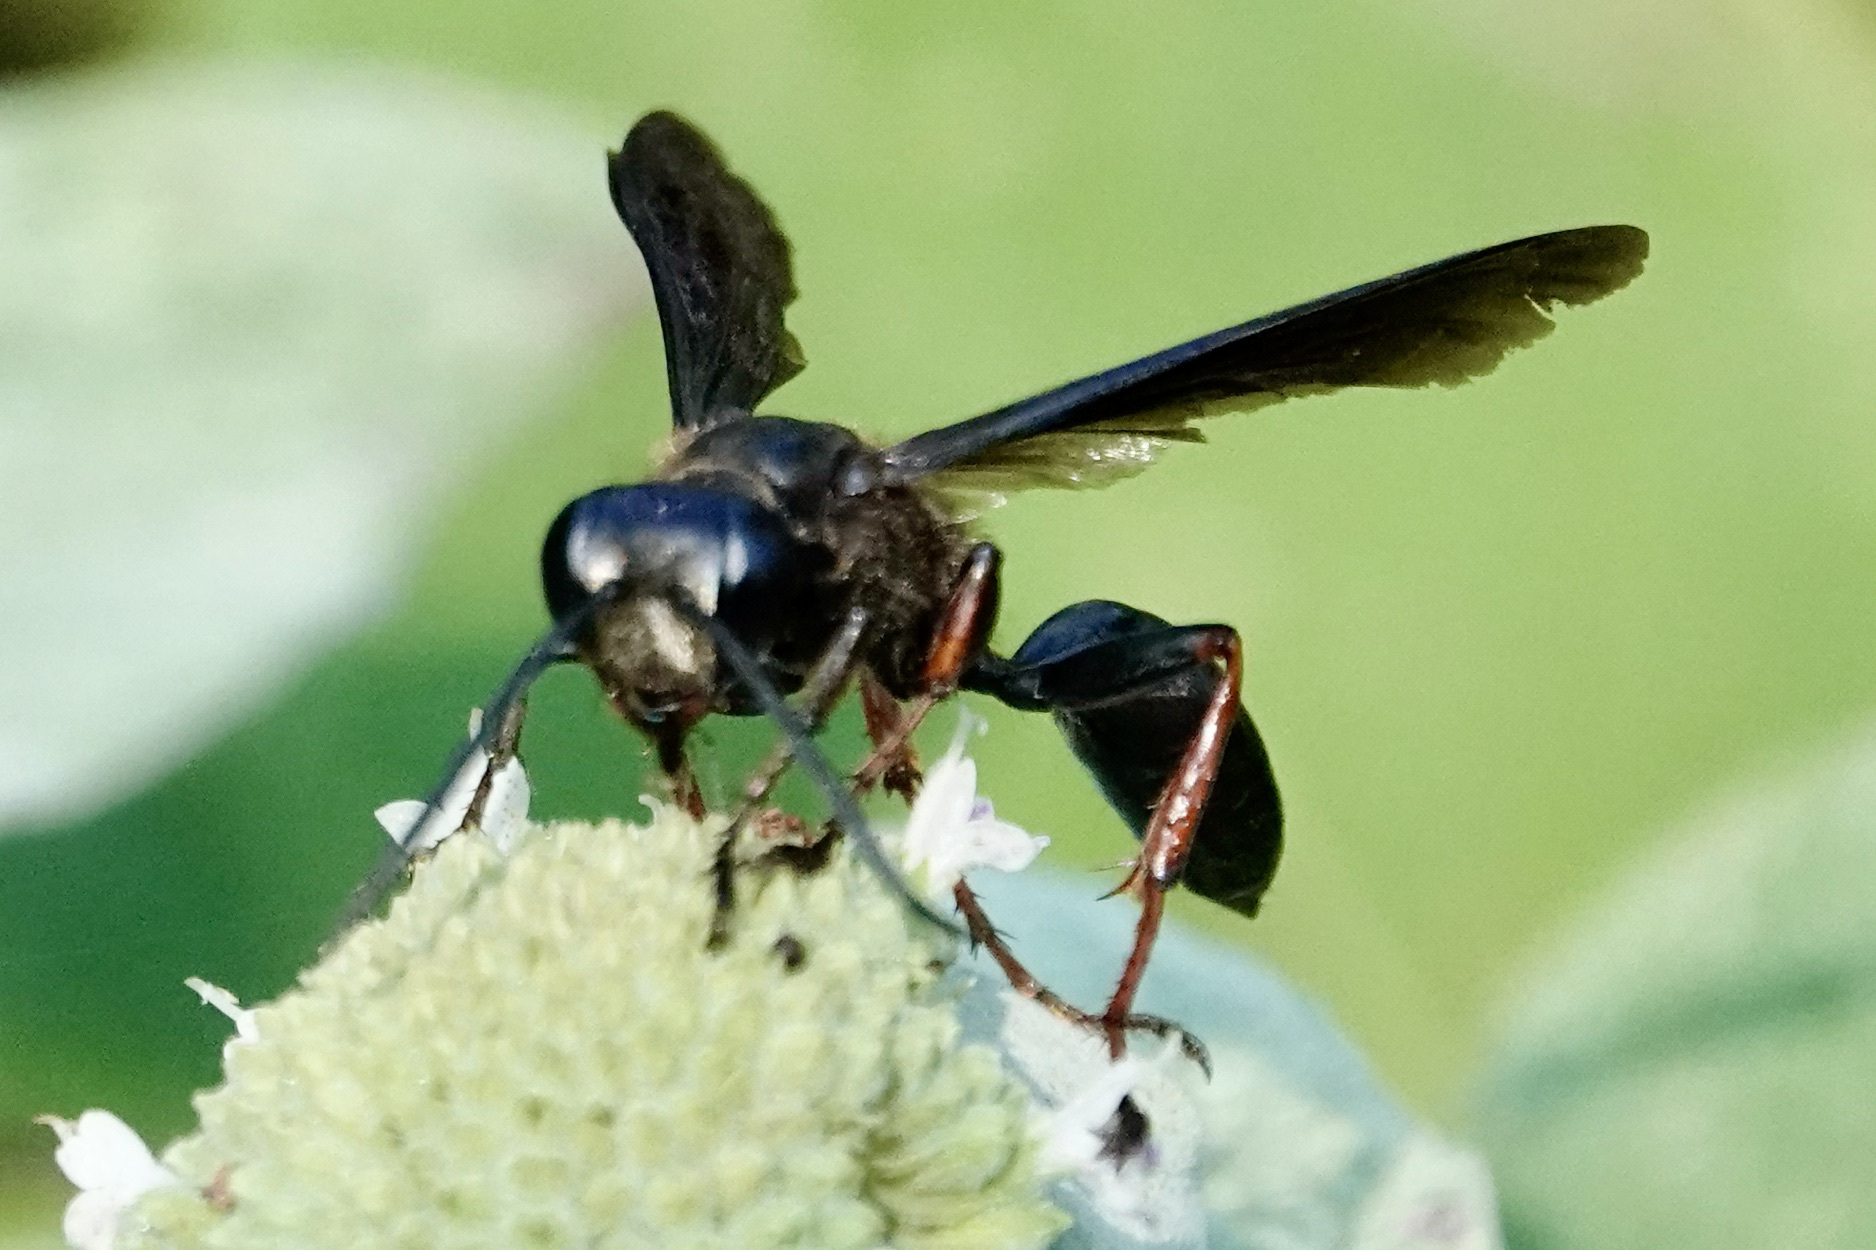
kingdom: Animalia
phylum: Arthropoda
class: Insecta
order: Hymenoptera
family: Sphecidae
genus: Isodontia
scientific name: Isodontia auripes
